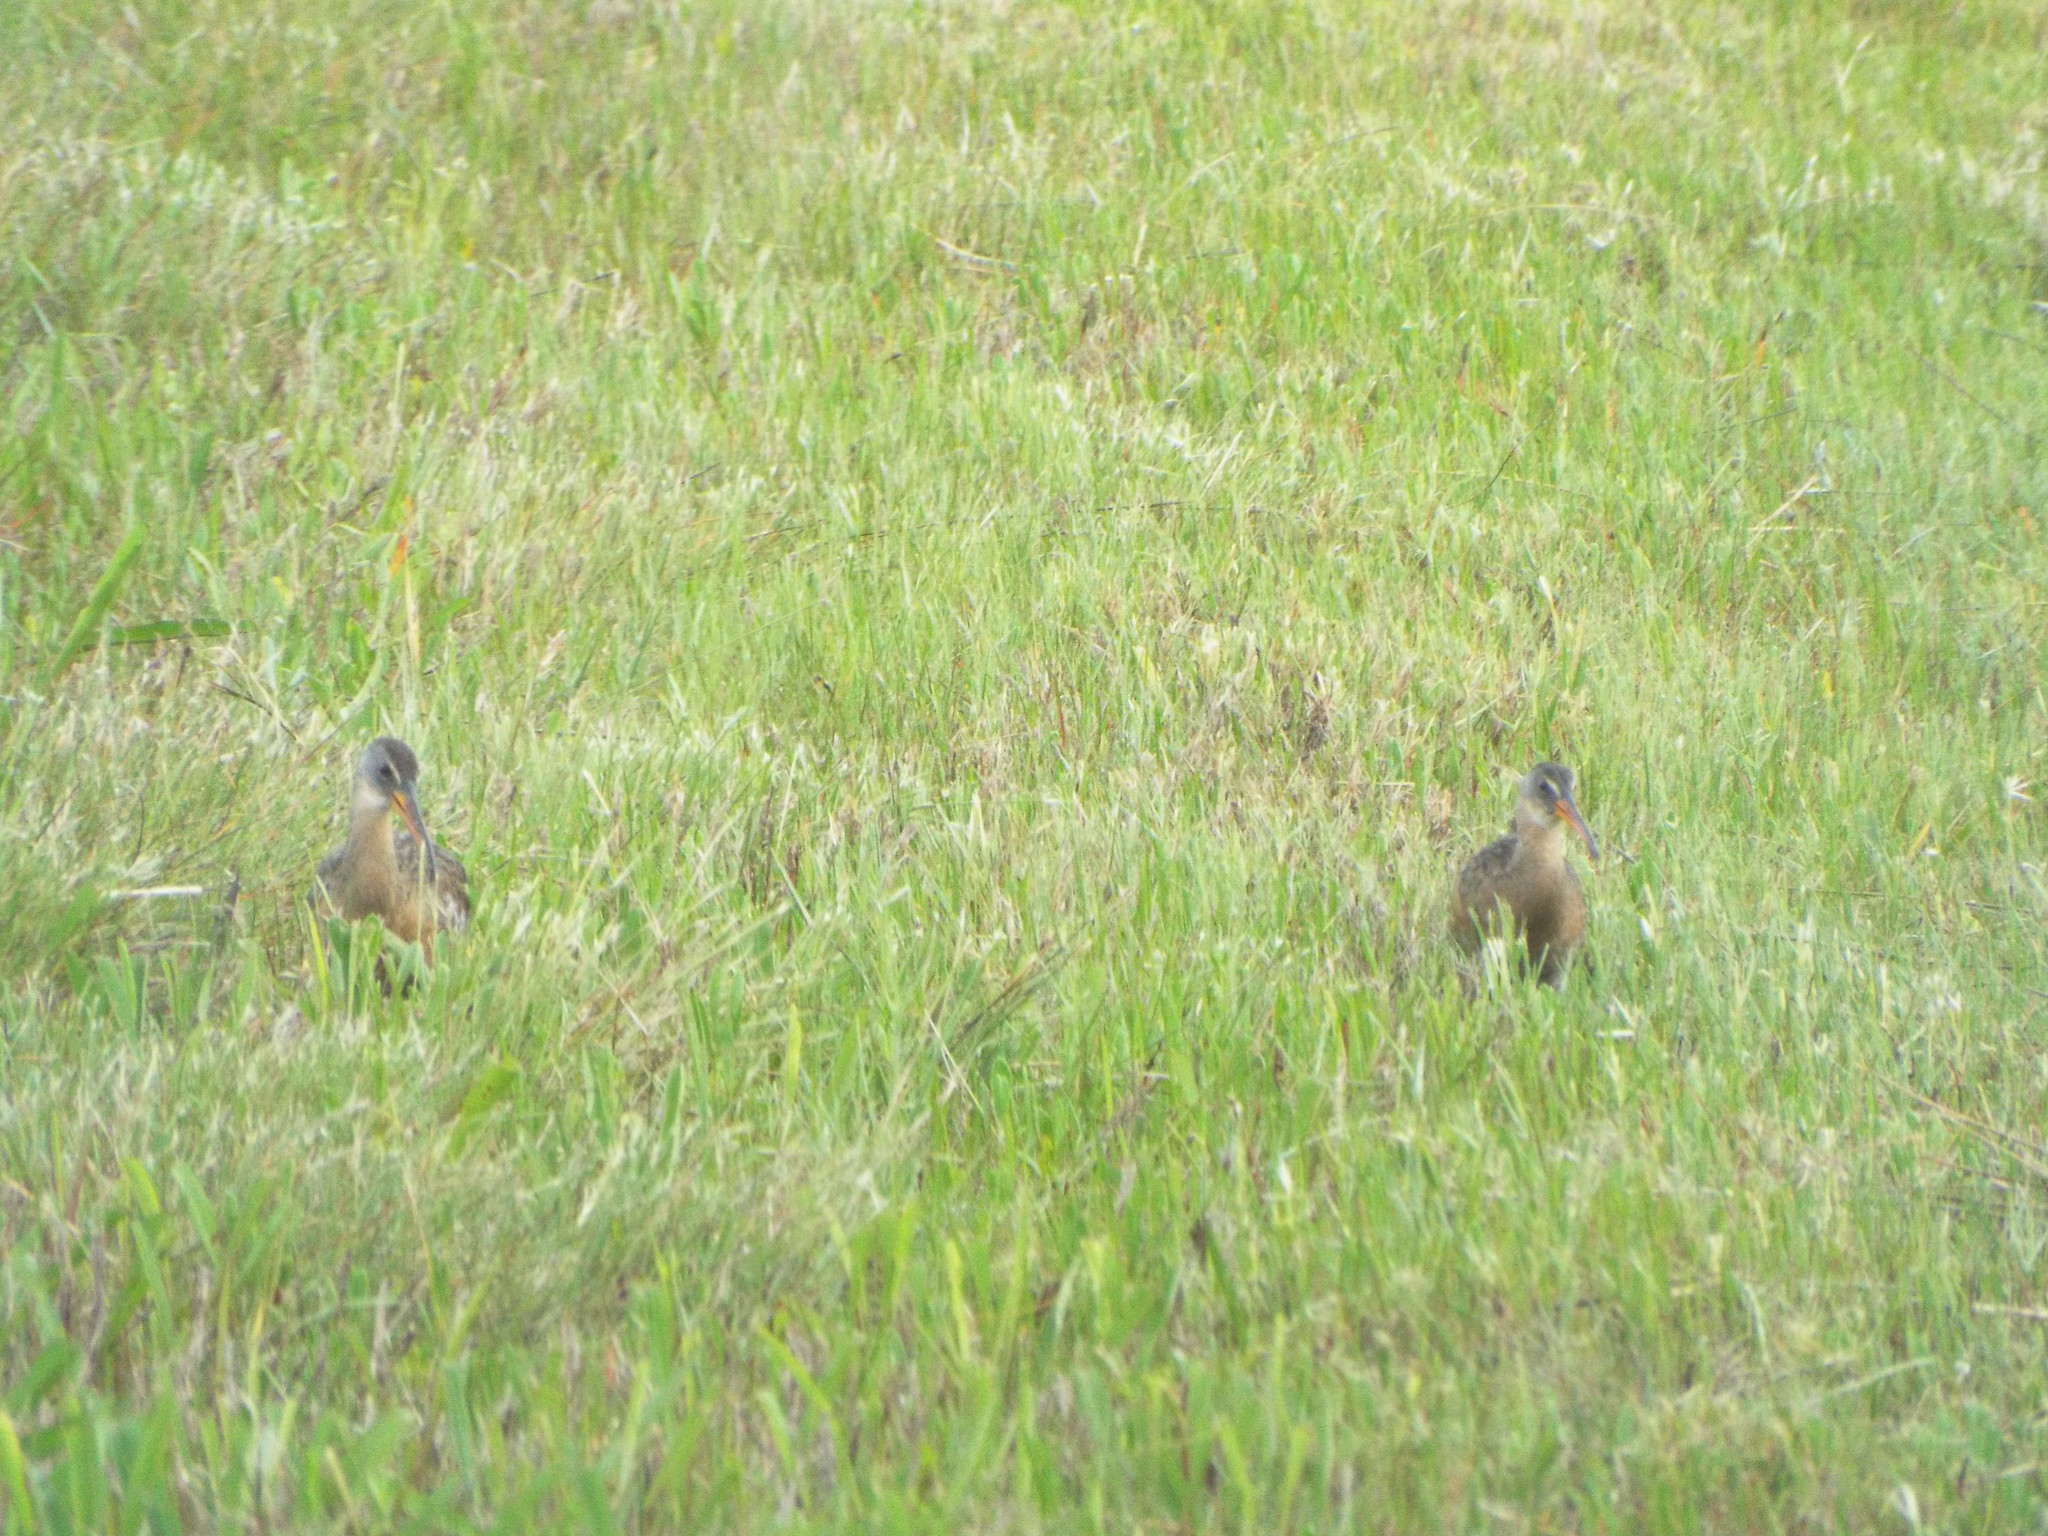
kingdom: Animalia
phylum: Chordata
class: Aves
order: Gruiformes
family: Rallidae
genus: Rallus
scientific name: Rallus crepitans
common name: Clapper rail
